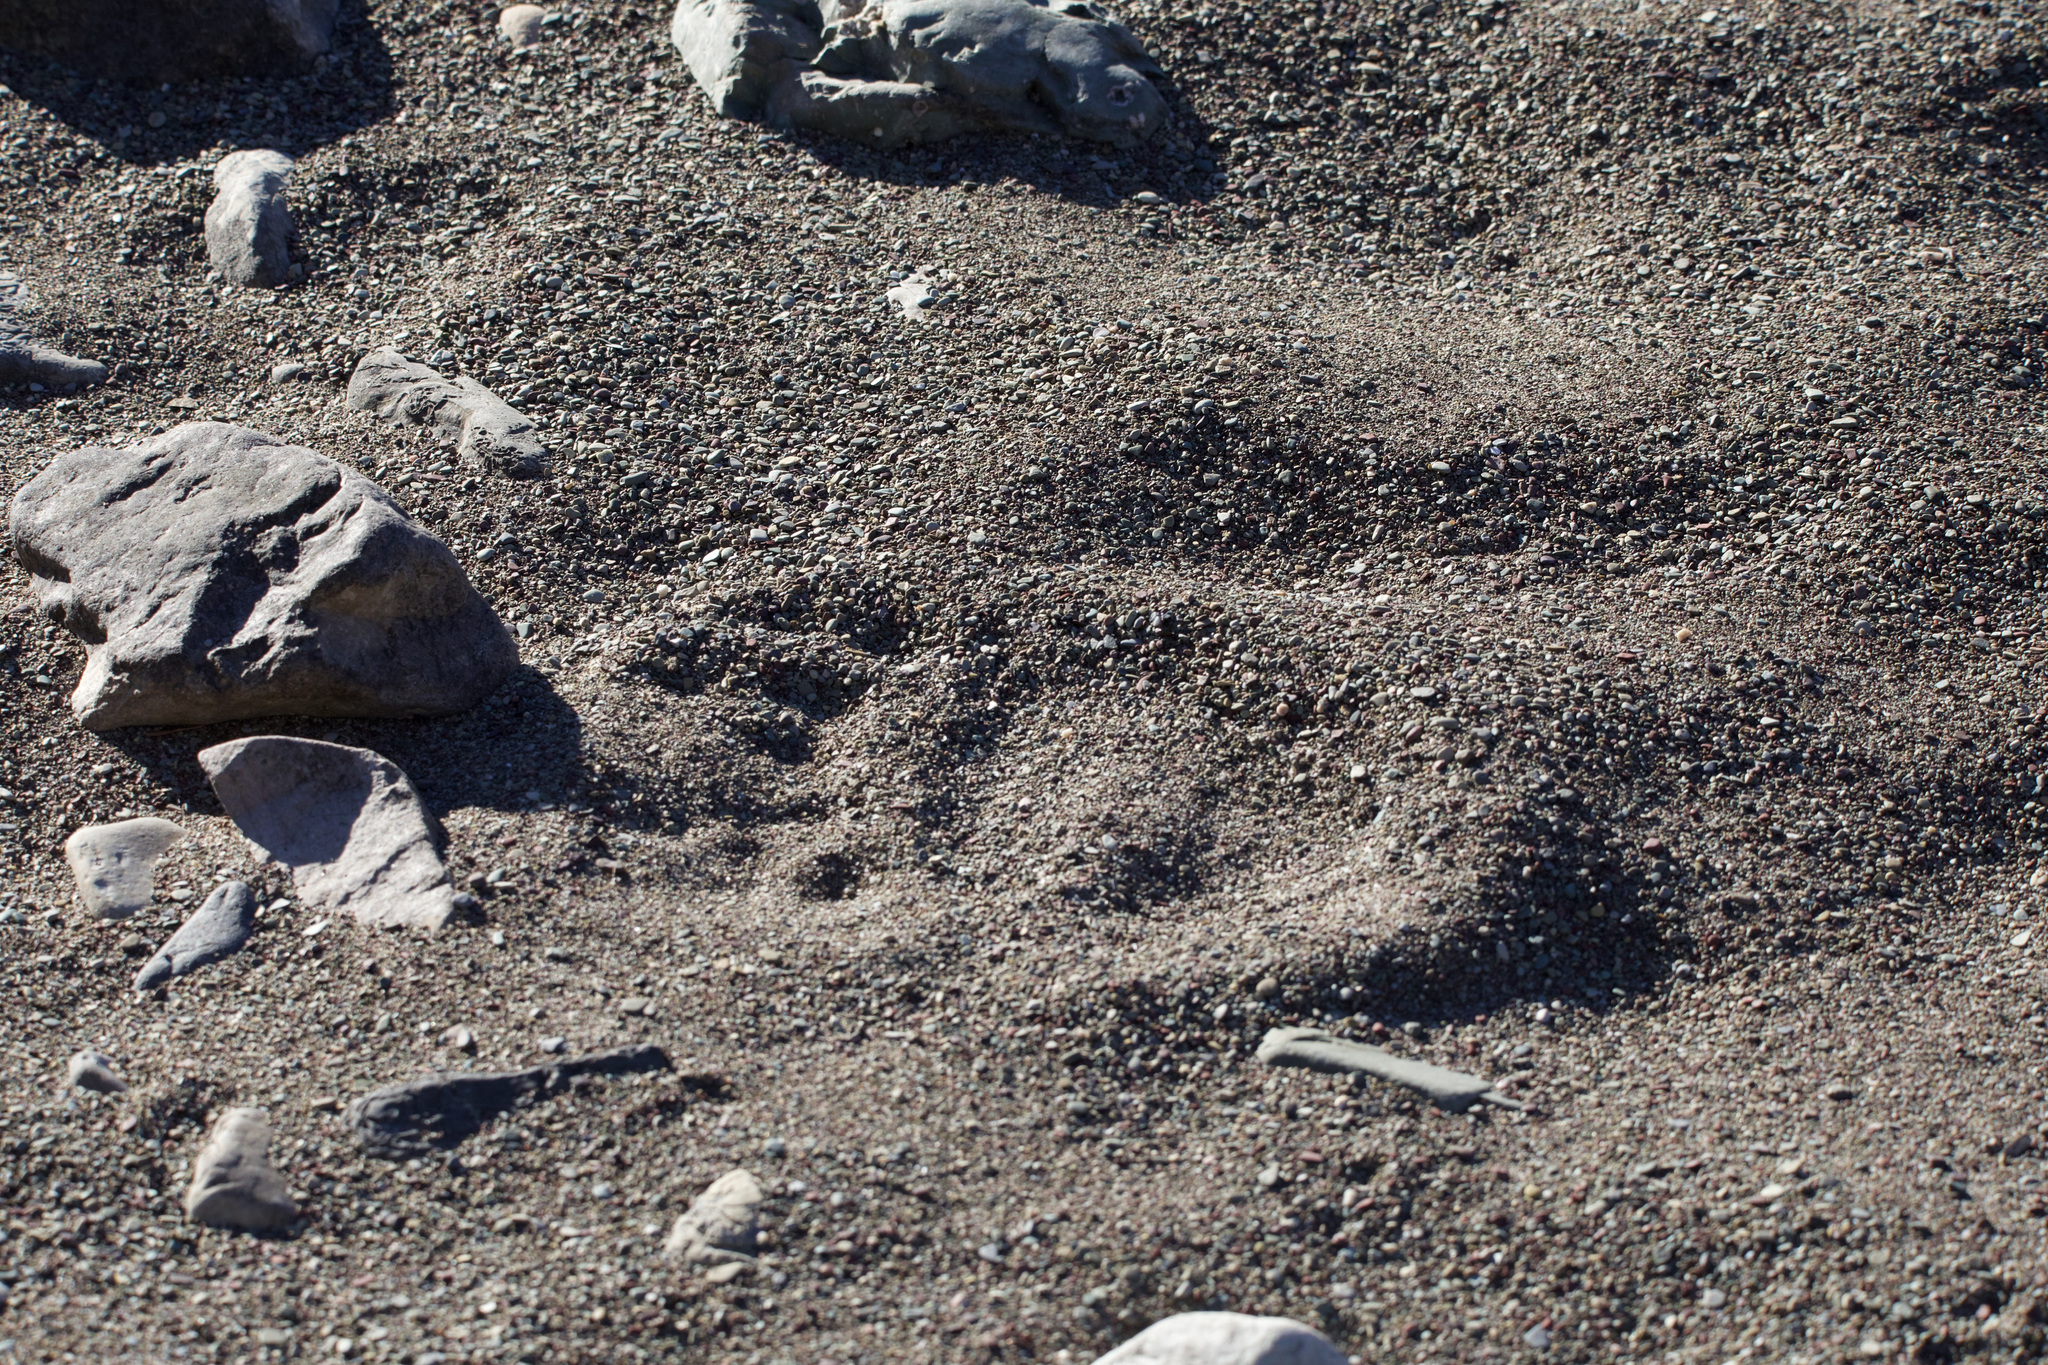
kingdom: Animalia
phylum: Chordata
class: Mammalia
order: Carnivora
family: Ursidae
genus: Ursus
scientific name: Ursus arctos
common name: Brown bear
